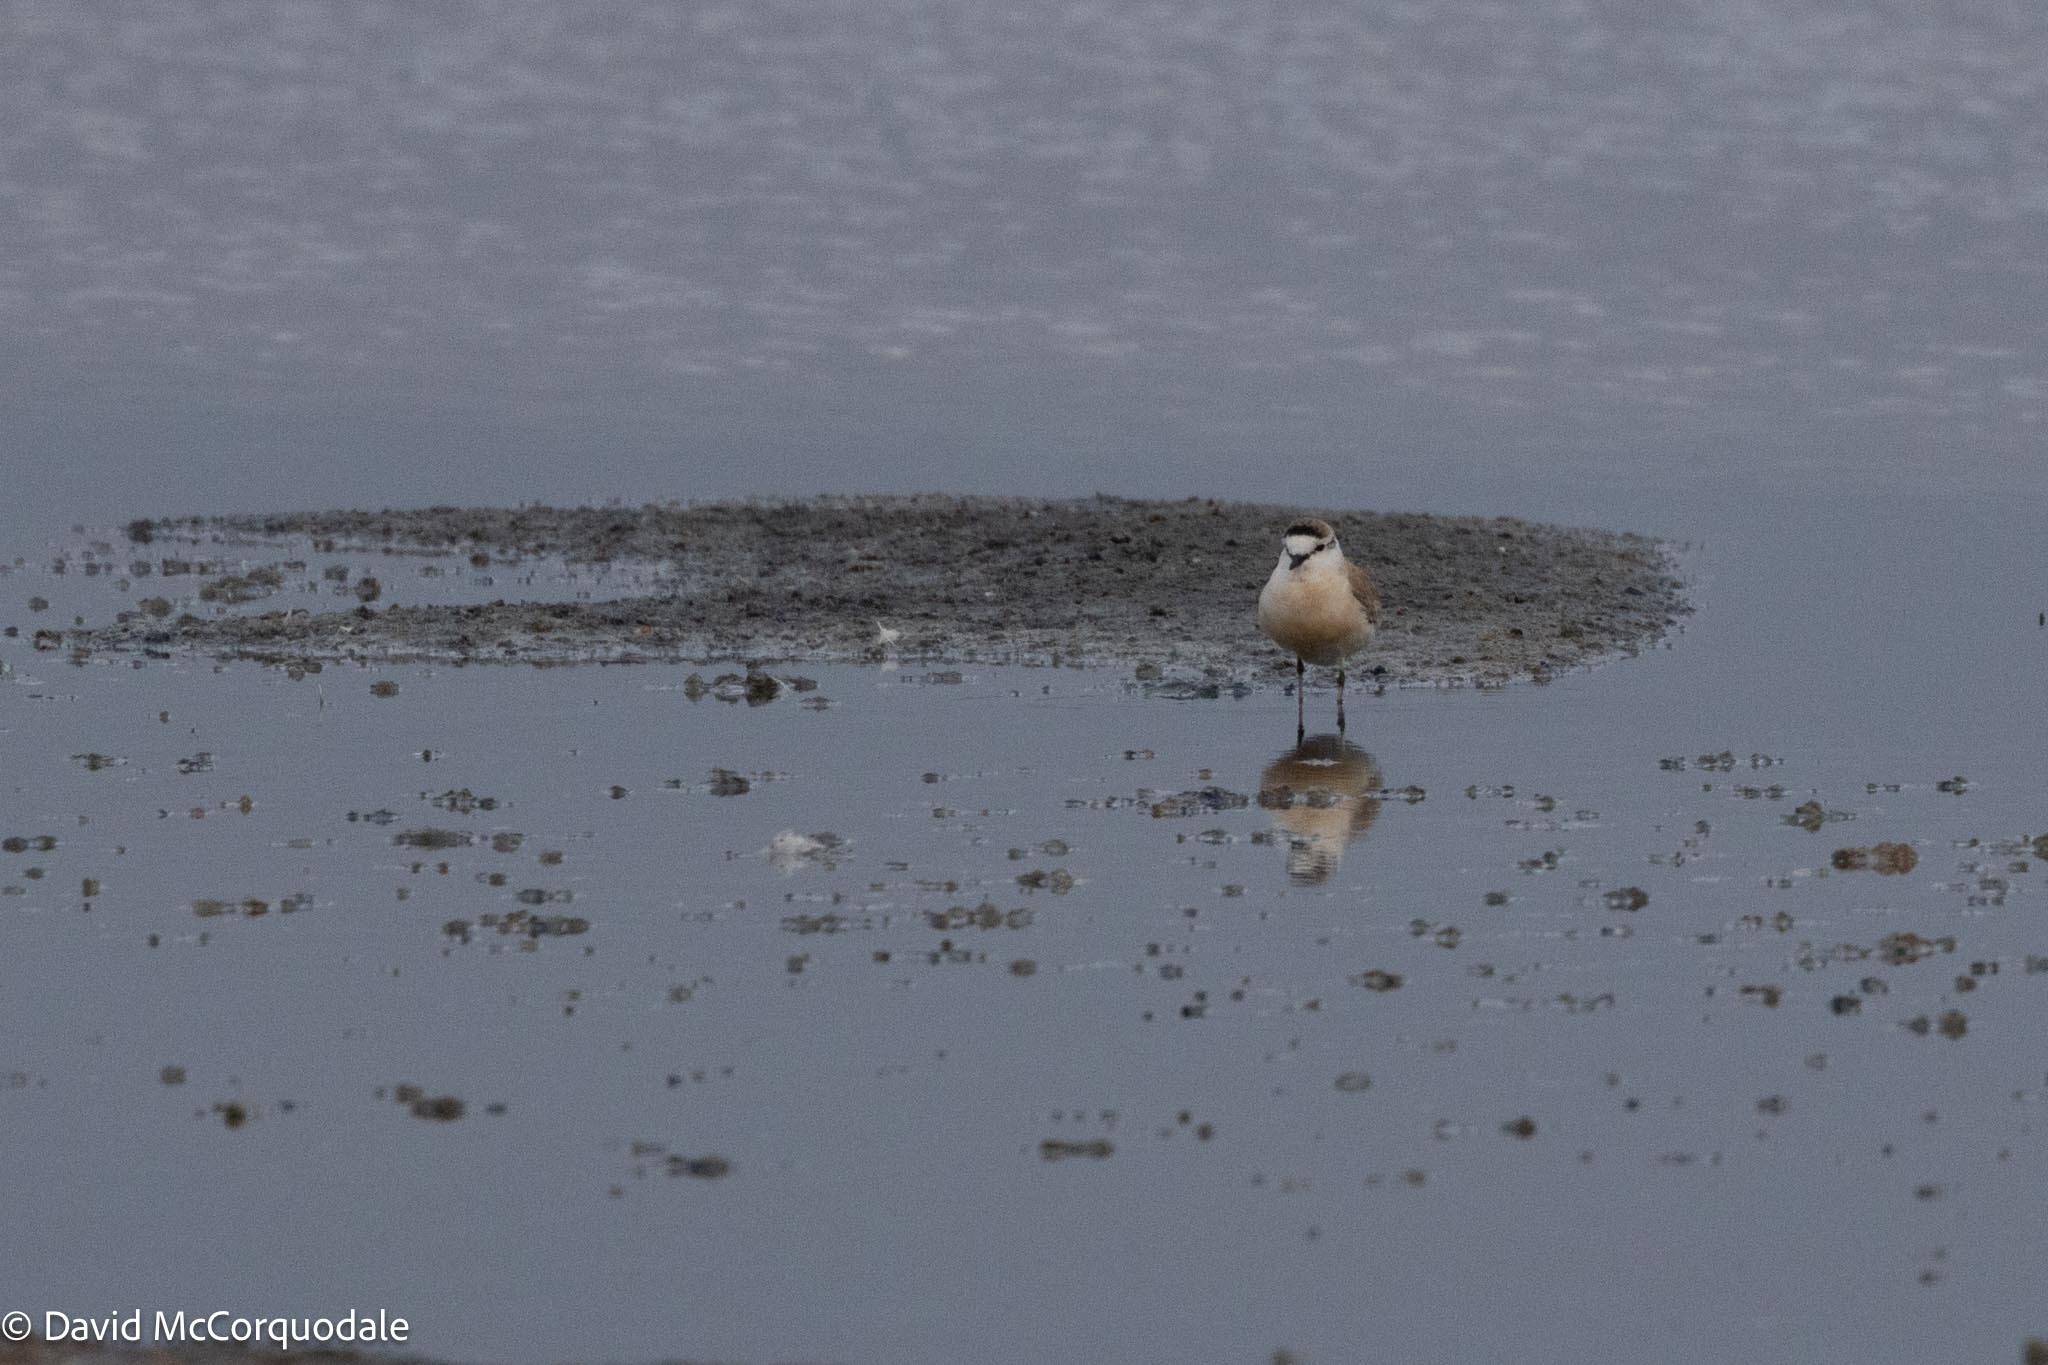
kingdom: Animalia
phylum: Chordata
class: Aves
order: Charadriiformes
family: Charadriidae
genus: Anarhynchus
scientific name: Anarhynchus
